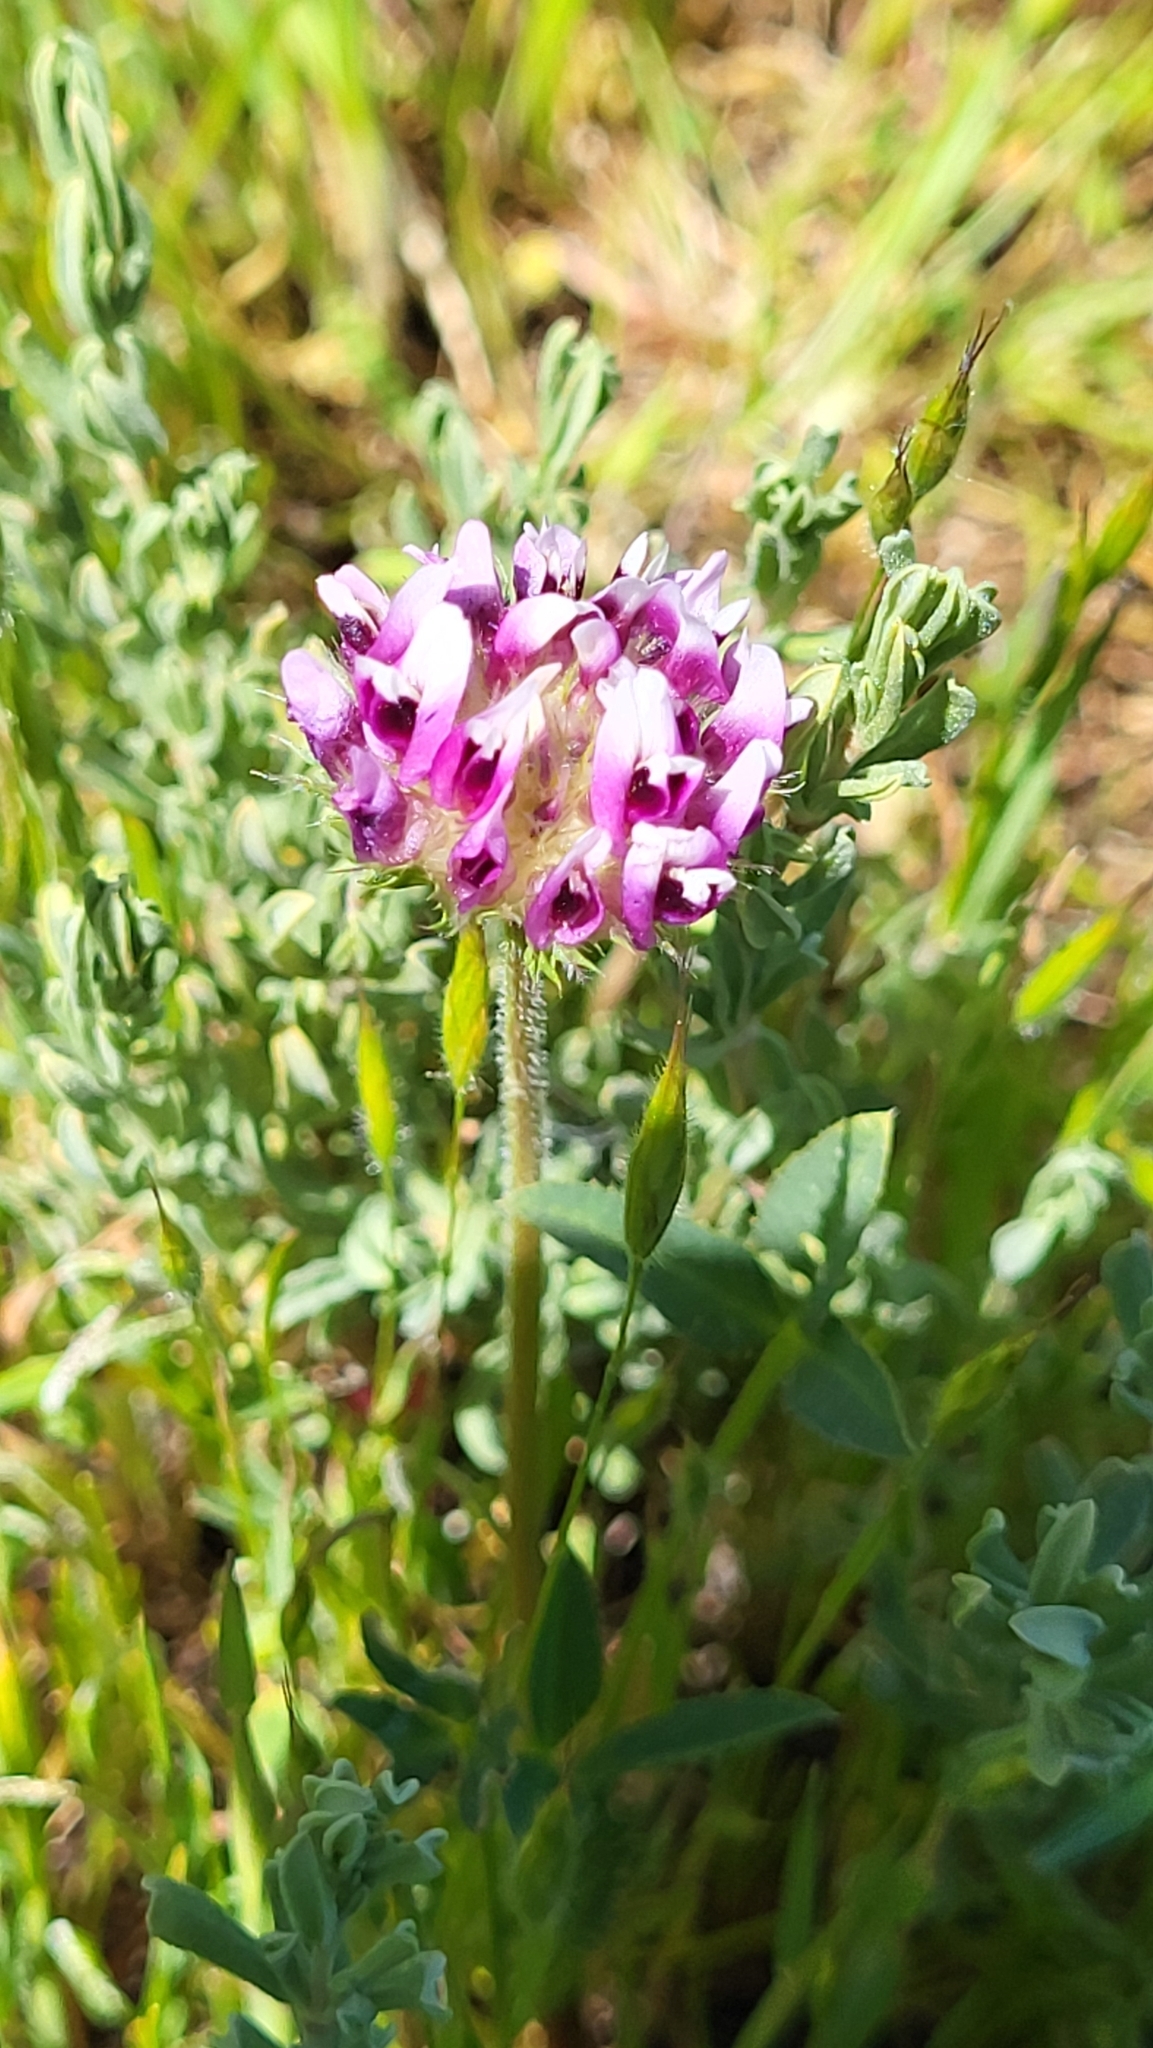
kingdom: Plantae
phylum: Tracheophyta
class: Magnoliopsida
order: Fabales
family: Fabaceae
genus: Trifolium
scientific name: Trifolium barbigerum
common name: Bearded clover
